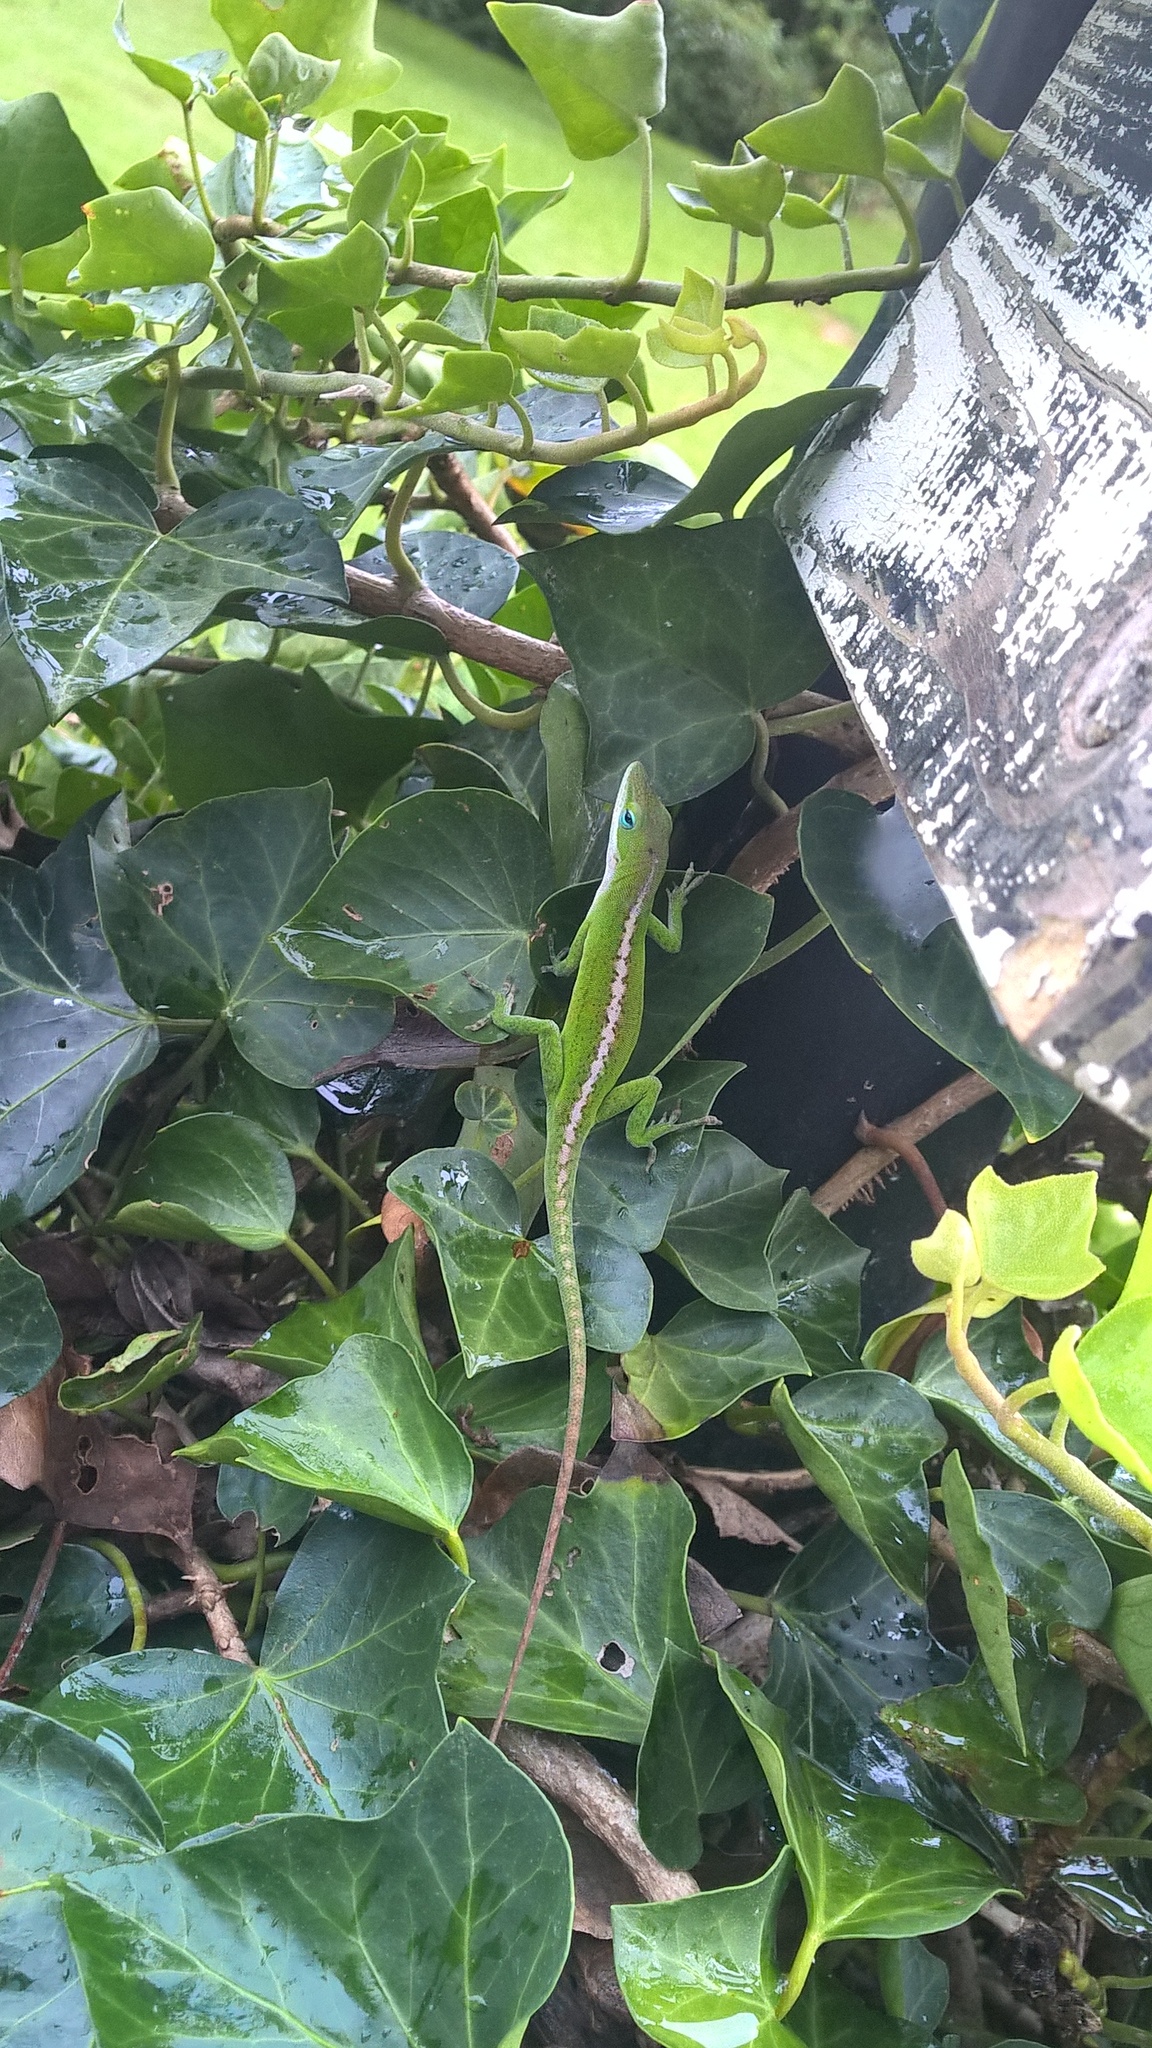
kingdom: Animalia
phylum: Chordata
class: Squamata
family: Dactyloidae
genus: Anolis
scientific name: Anolis carolinensis
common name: Green anole
